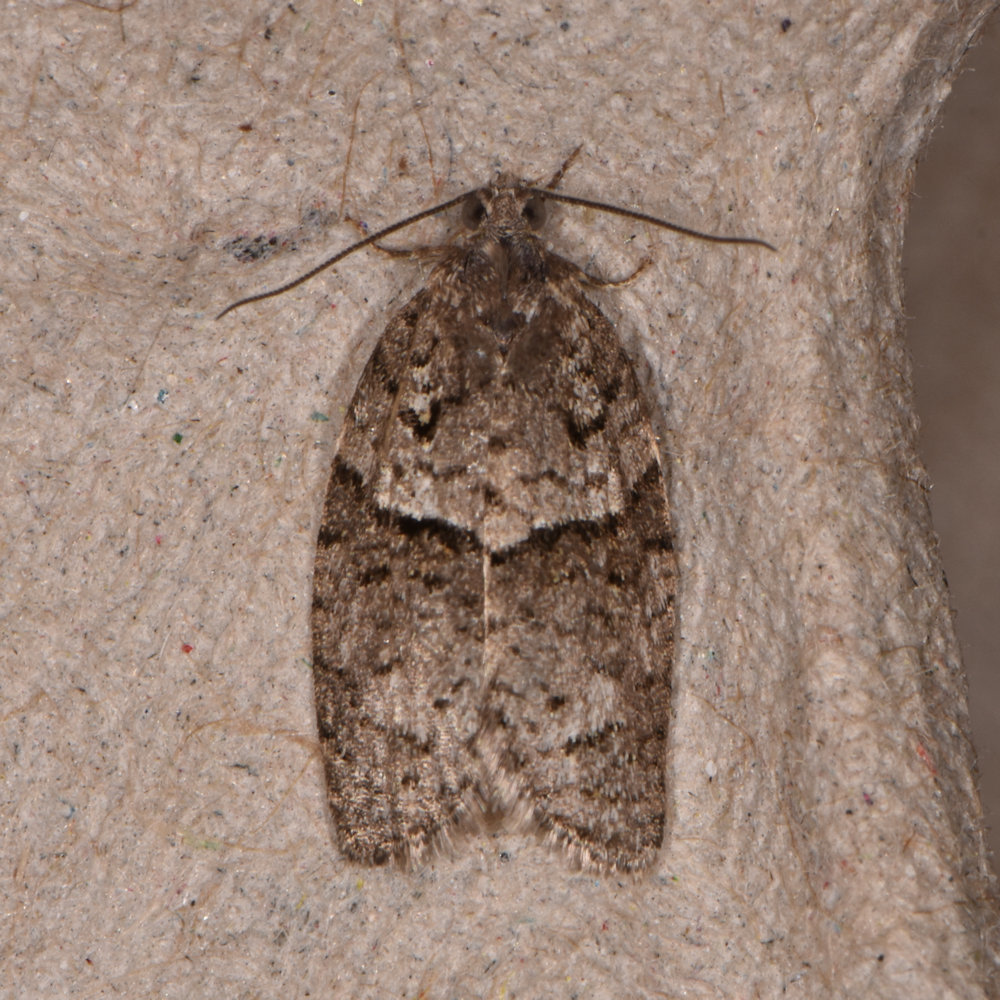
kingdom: Animalia
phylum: Arthropoda
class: Insecta
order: Lepidoptera
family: Tortricidae
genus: Syndemis
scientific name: Syndemis afflictana
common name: Gray leafroller moth
